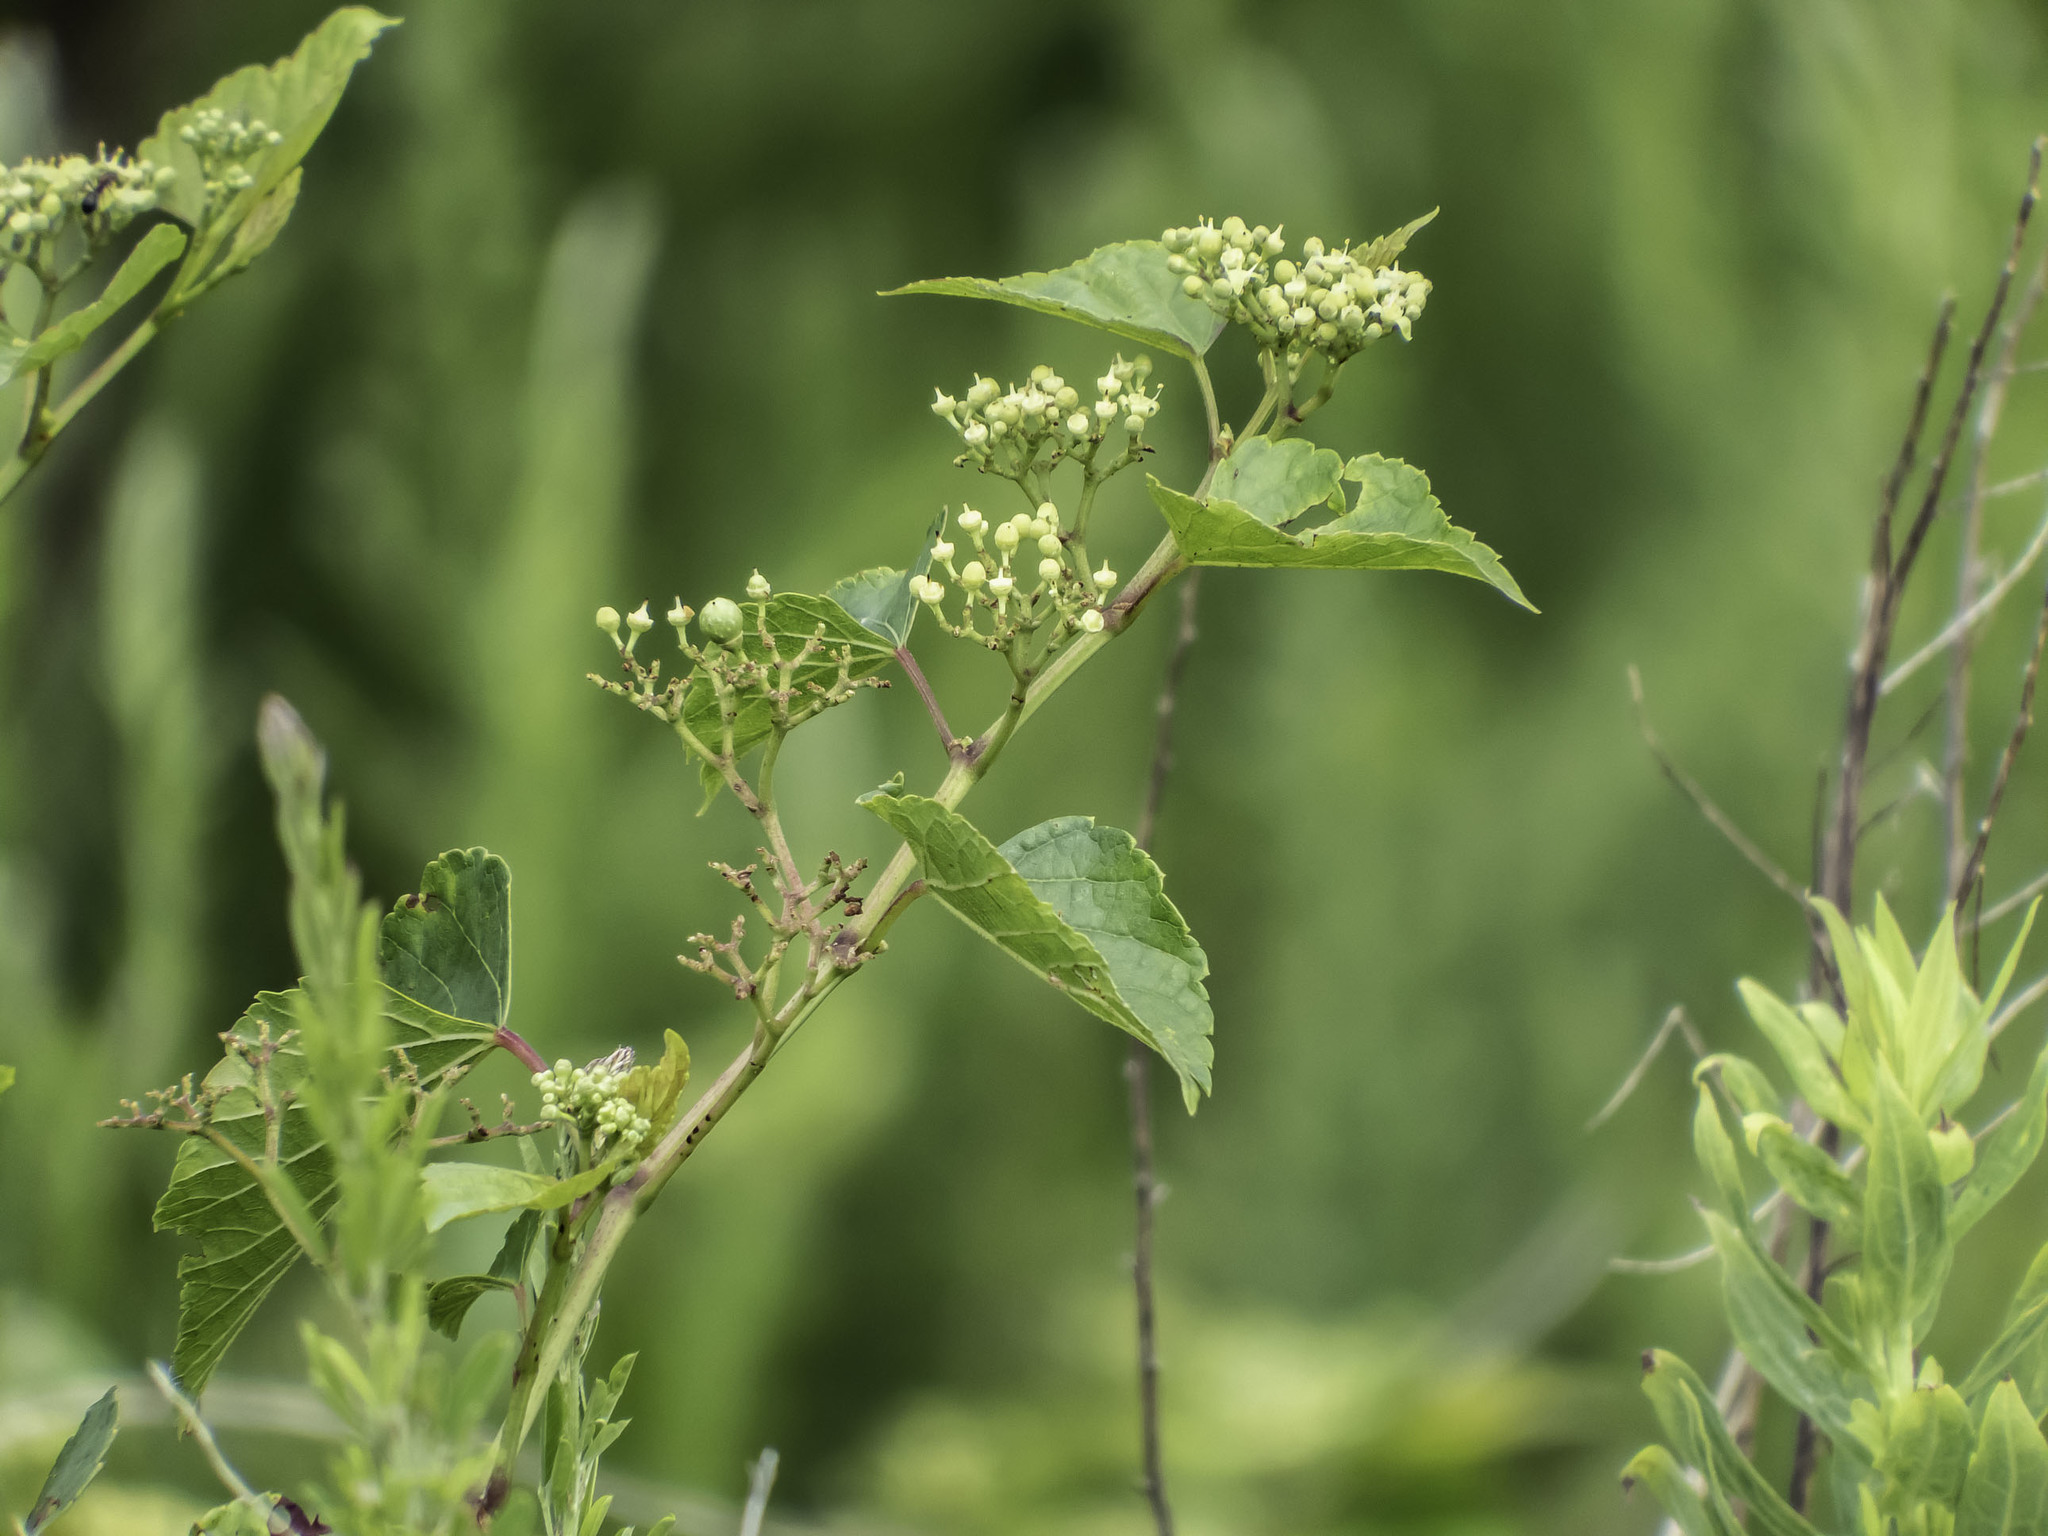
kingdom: Plantae
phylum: Tracheophyta
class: Magnoliopsida
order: Vitales
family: Vitaceae
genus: Ampelopsis
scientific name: Ampelopsis glandulosa
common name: Amur peppervine
